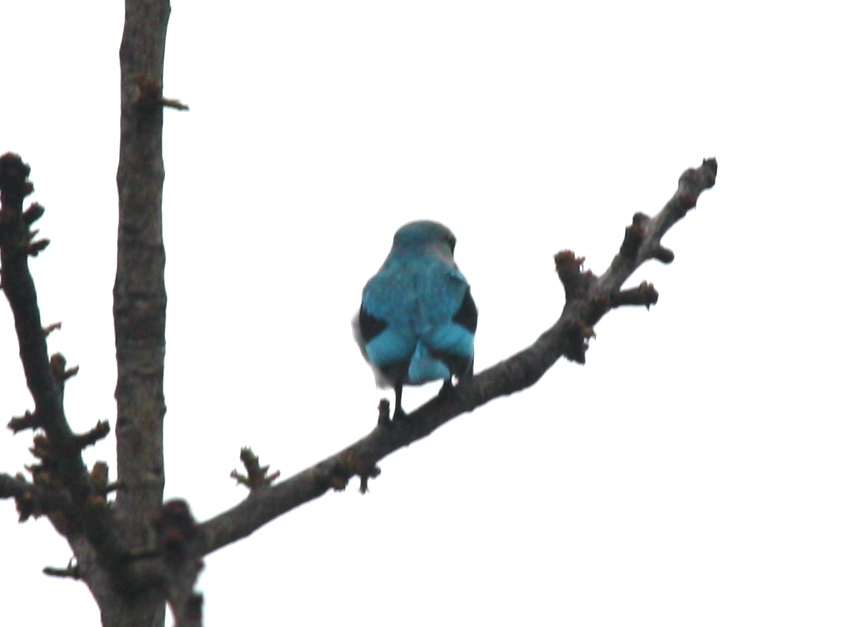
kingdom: Animalia
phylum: Chordata
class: Aves
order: Coraciiformes
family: Alcedinidae
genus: Halcyon
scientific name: Halcyon senegalensis
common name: Woodland kingfisher
